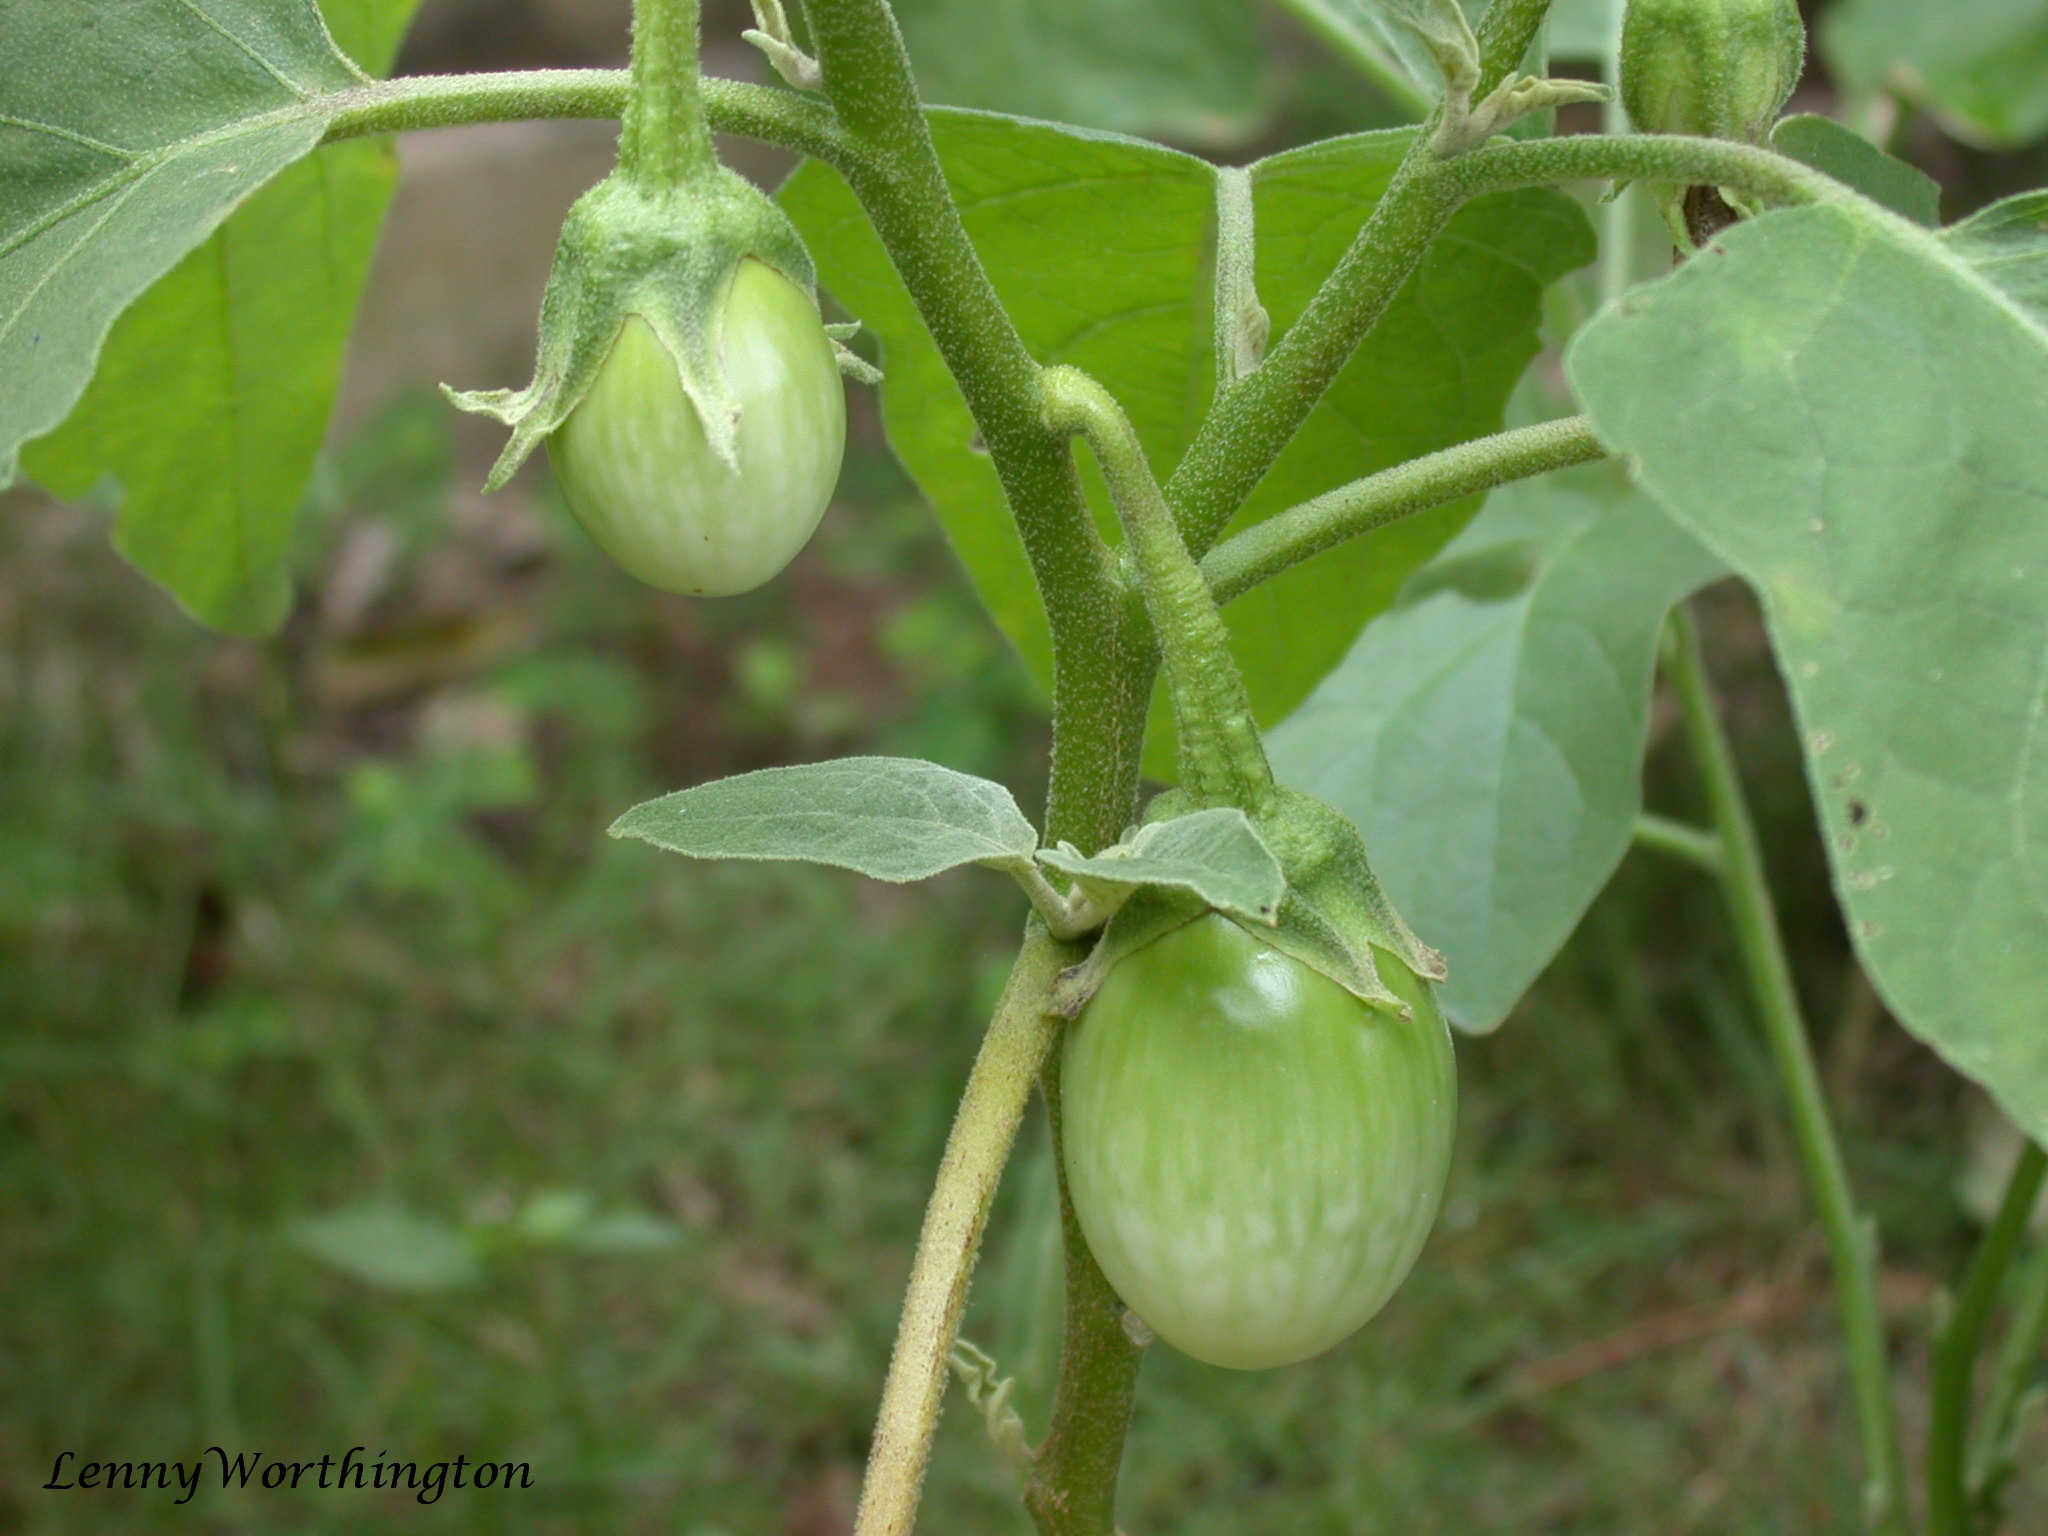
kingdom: Plantae
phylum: Tracheophyta
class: Magnoliopsida
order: Solanales
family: Solanaceae
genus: Solanum
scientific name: Solanum melongena
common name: Eggplant
